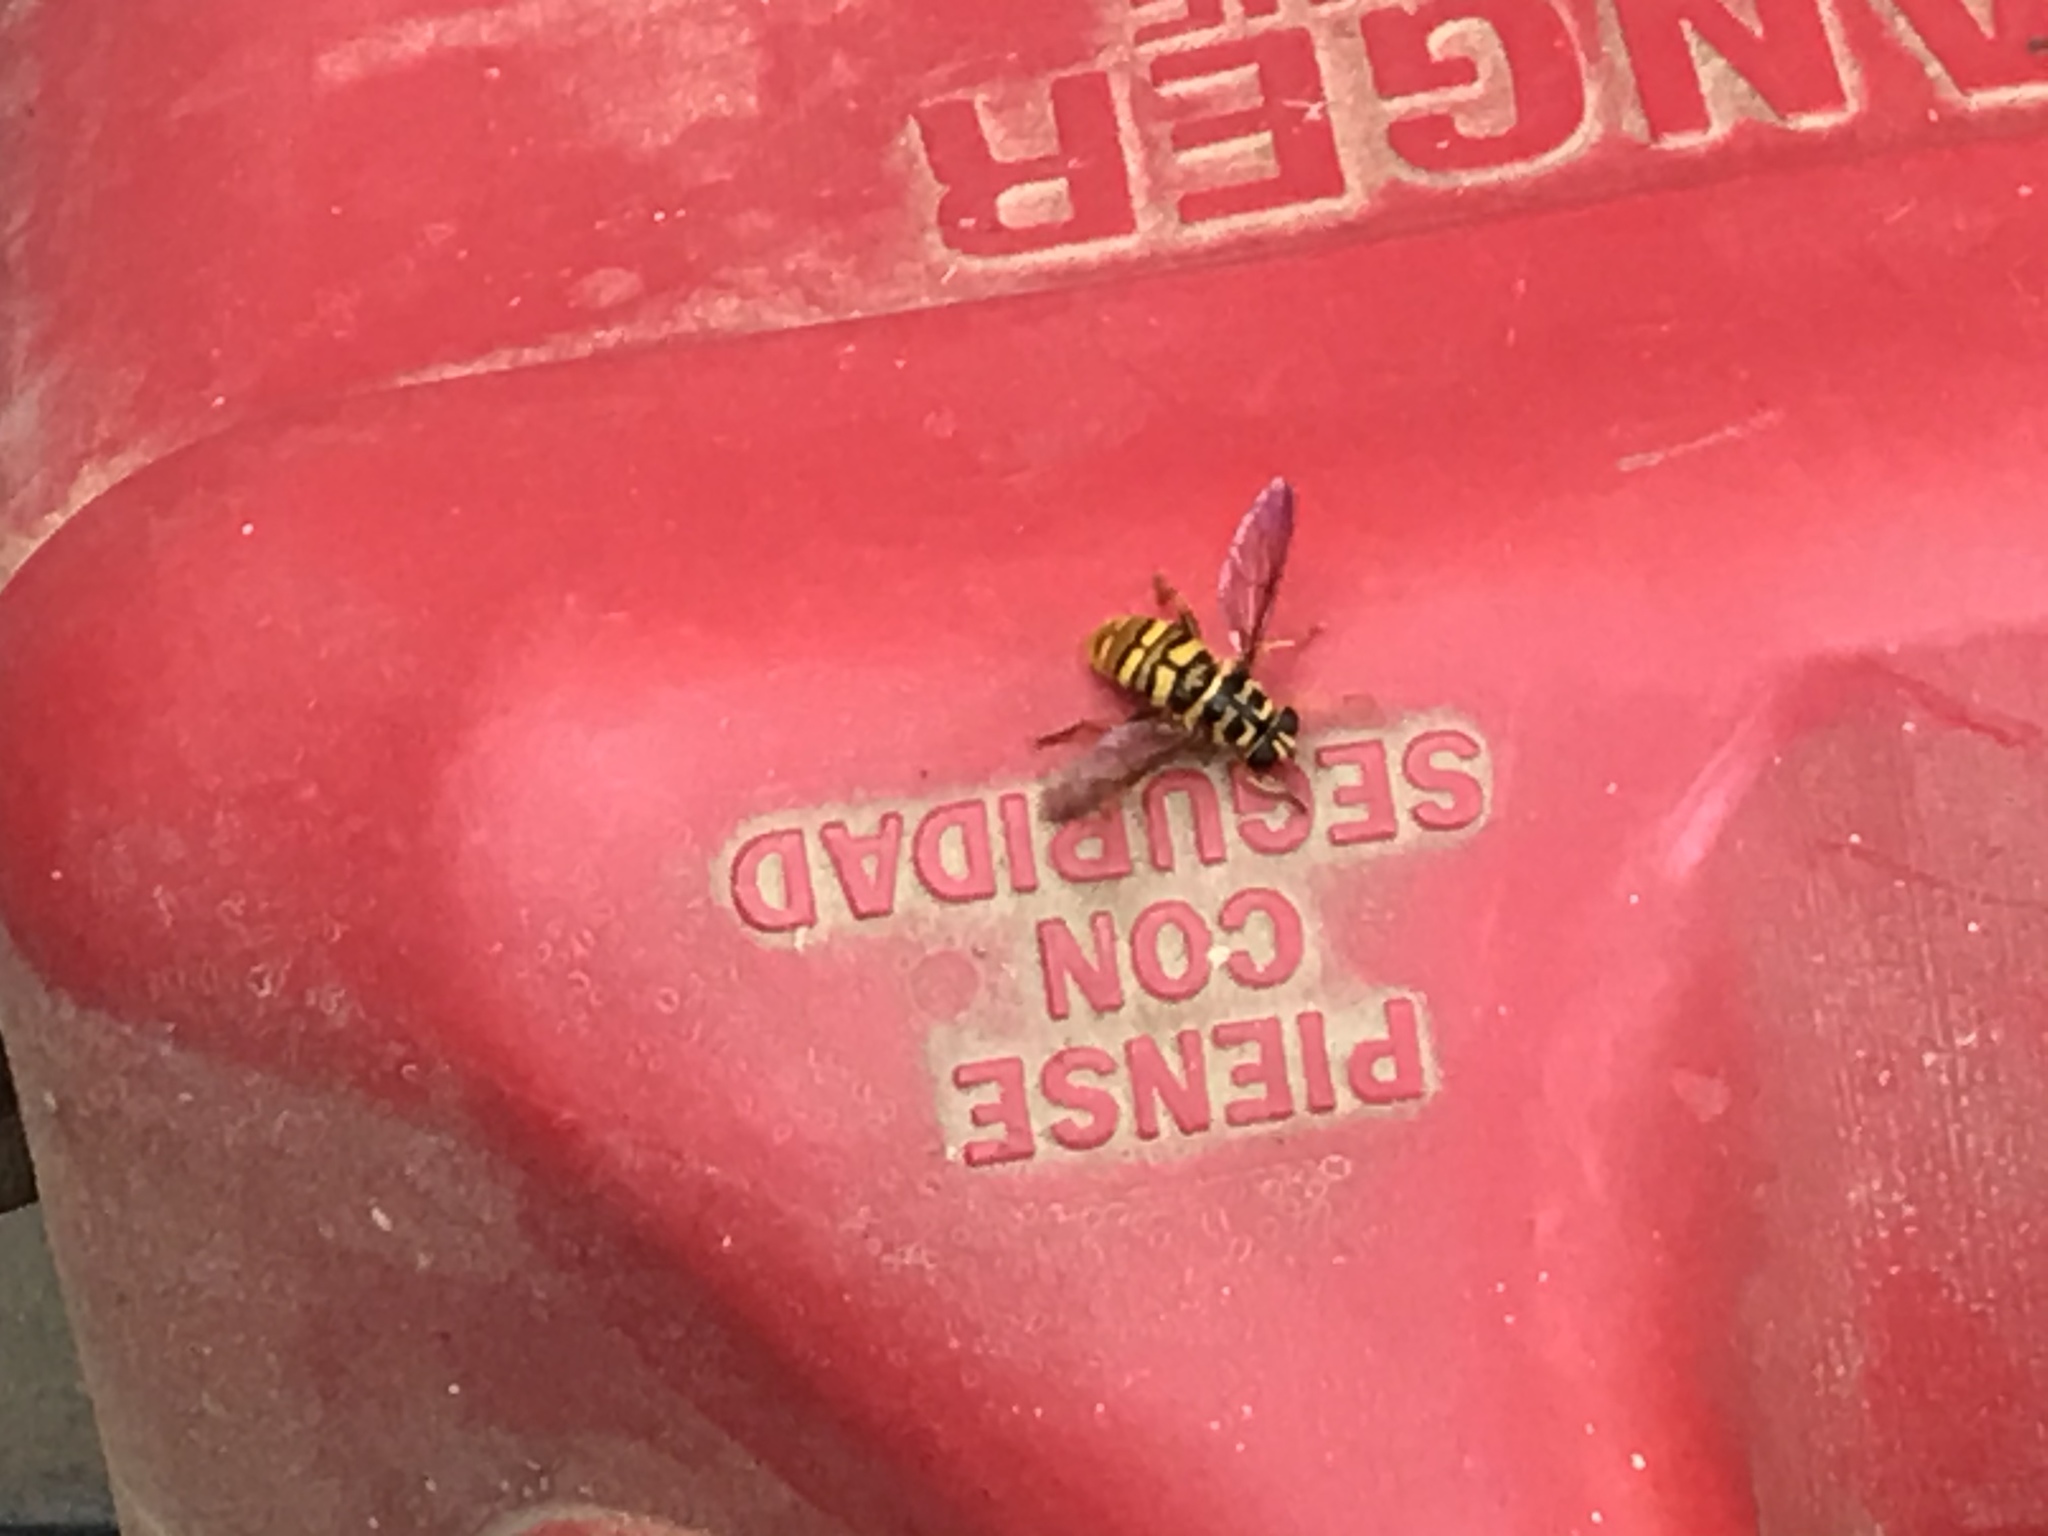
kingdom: Animalia
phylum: Arthropoda
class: Insecta
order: Diptera
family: Syrphidae
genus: Milesia
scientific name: Milesia virginiensis
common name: Virginia giant
